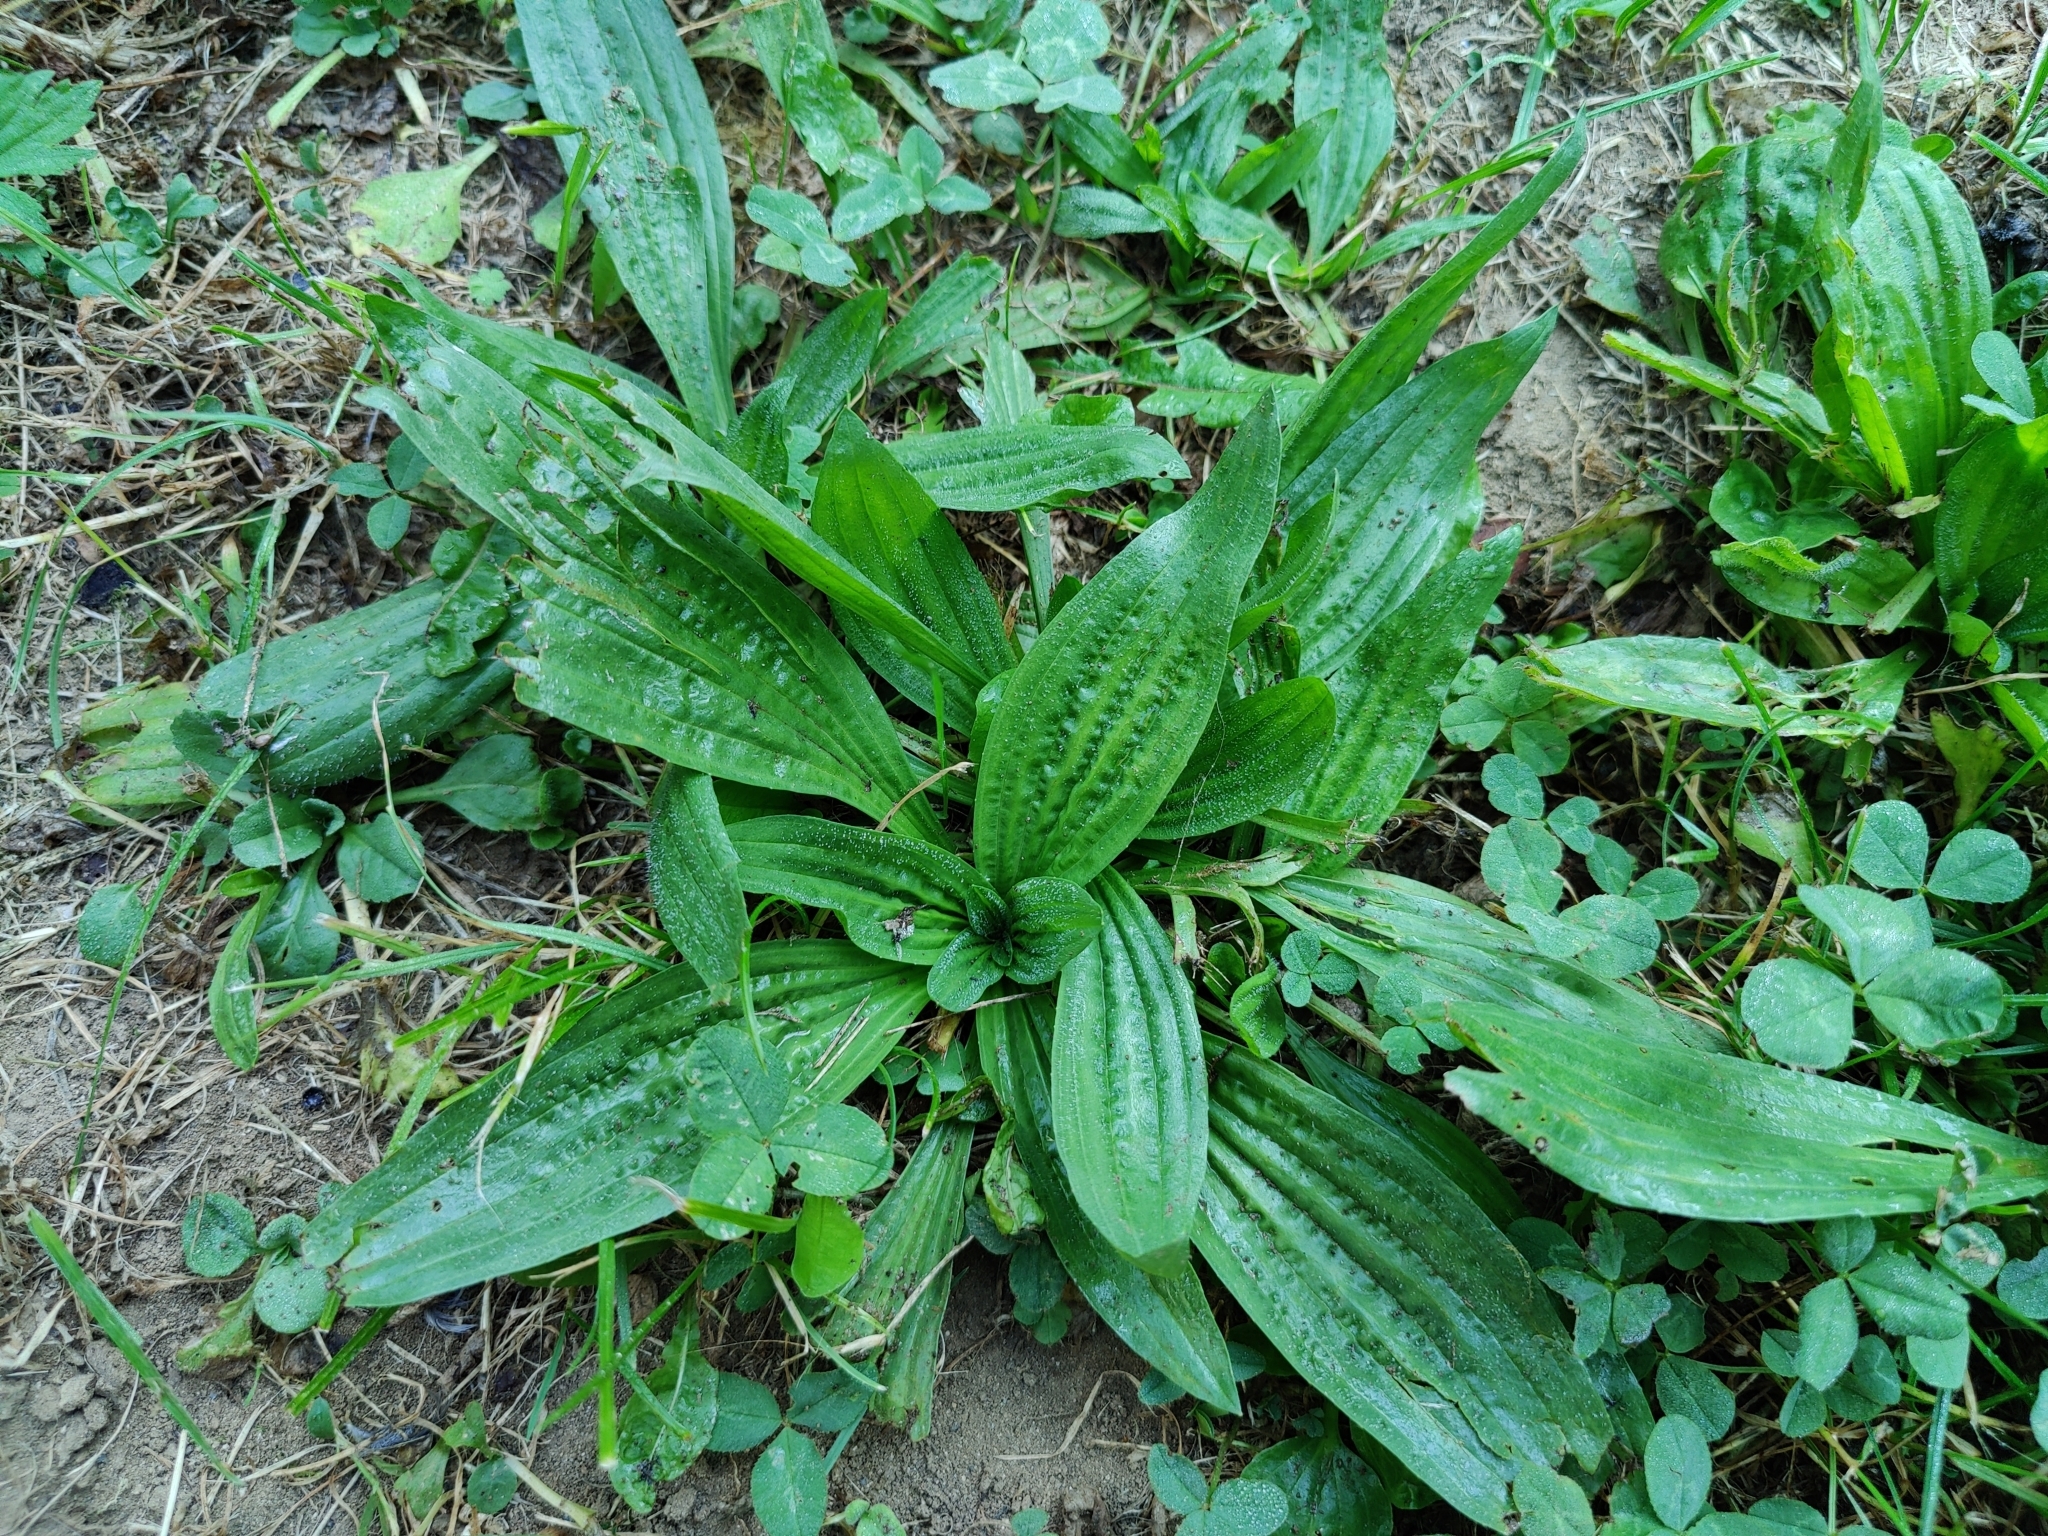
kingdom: Plantae
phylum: Tracheophyta
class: Magnoliopsida
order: Lamiales
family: Plantaginaceae
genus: Plantago
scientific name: Plantago lanceolata
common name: Ribwort plantain
